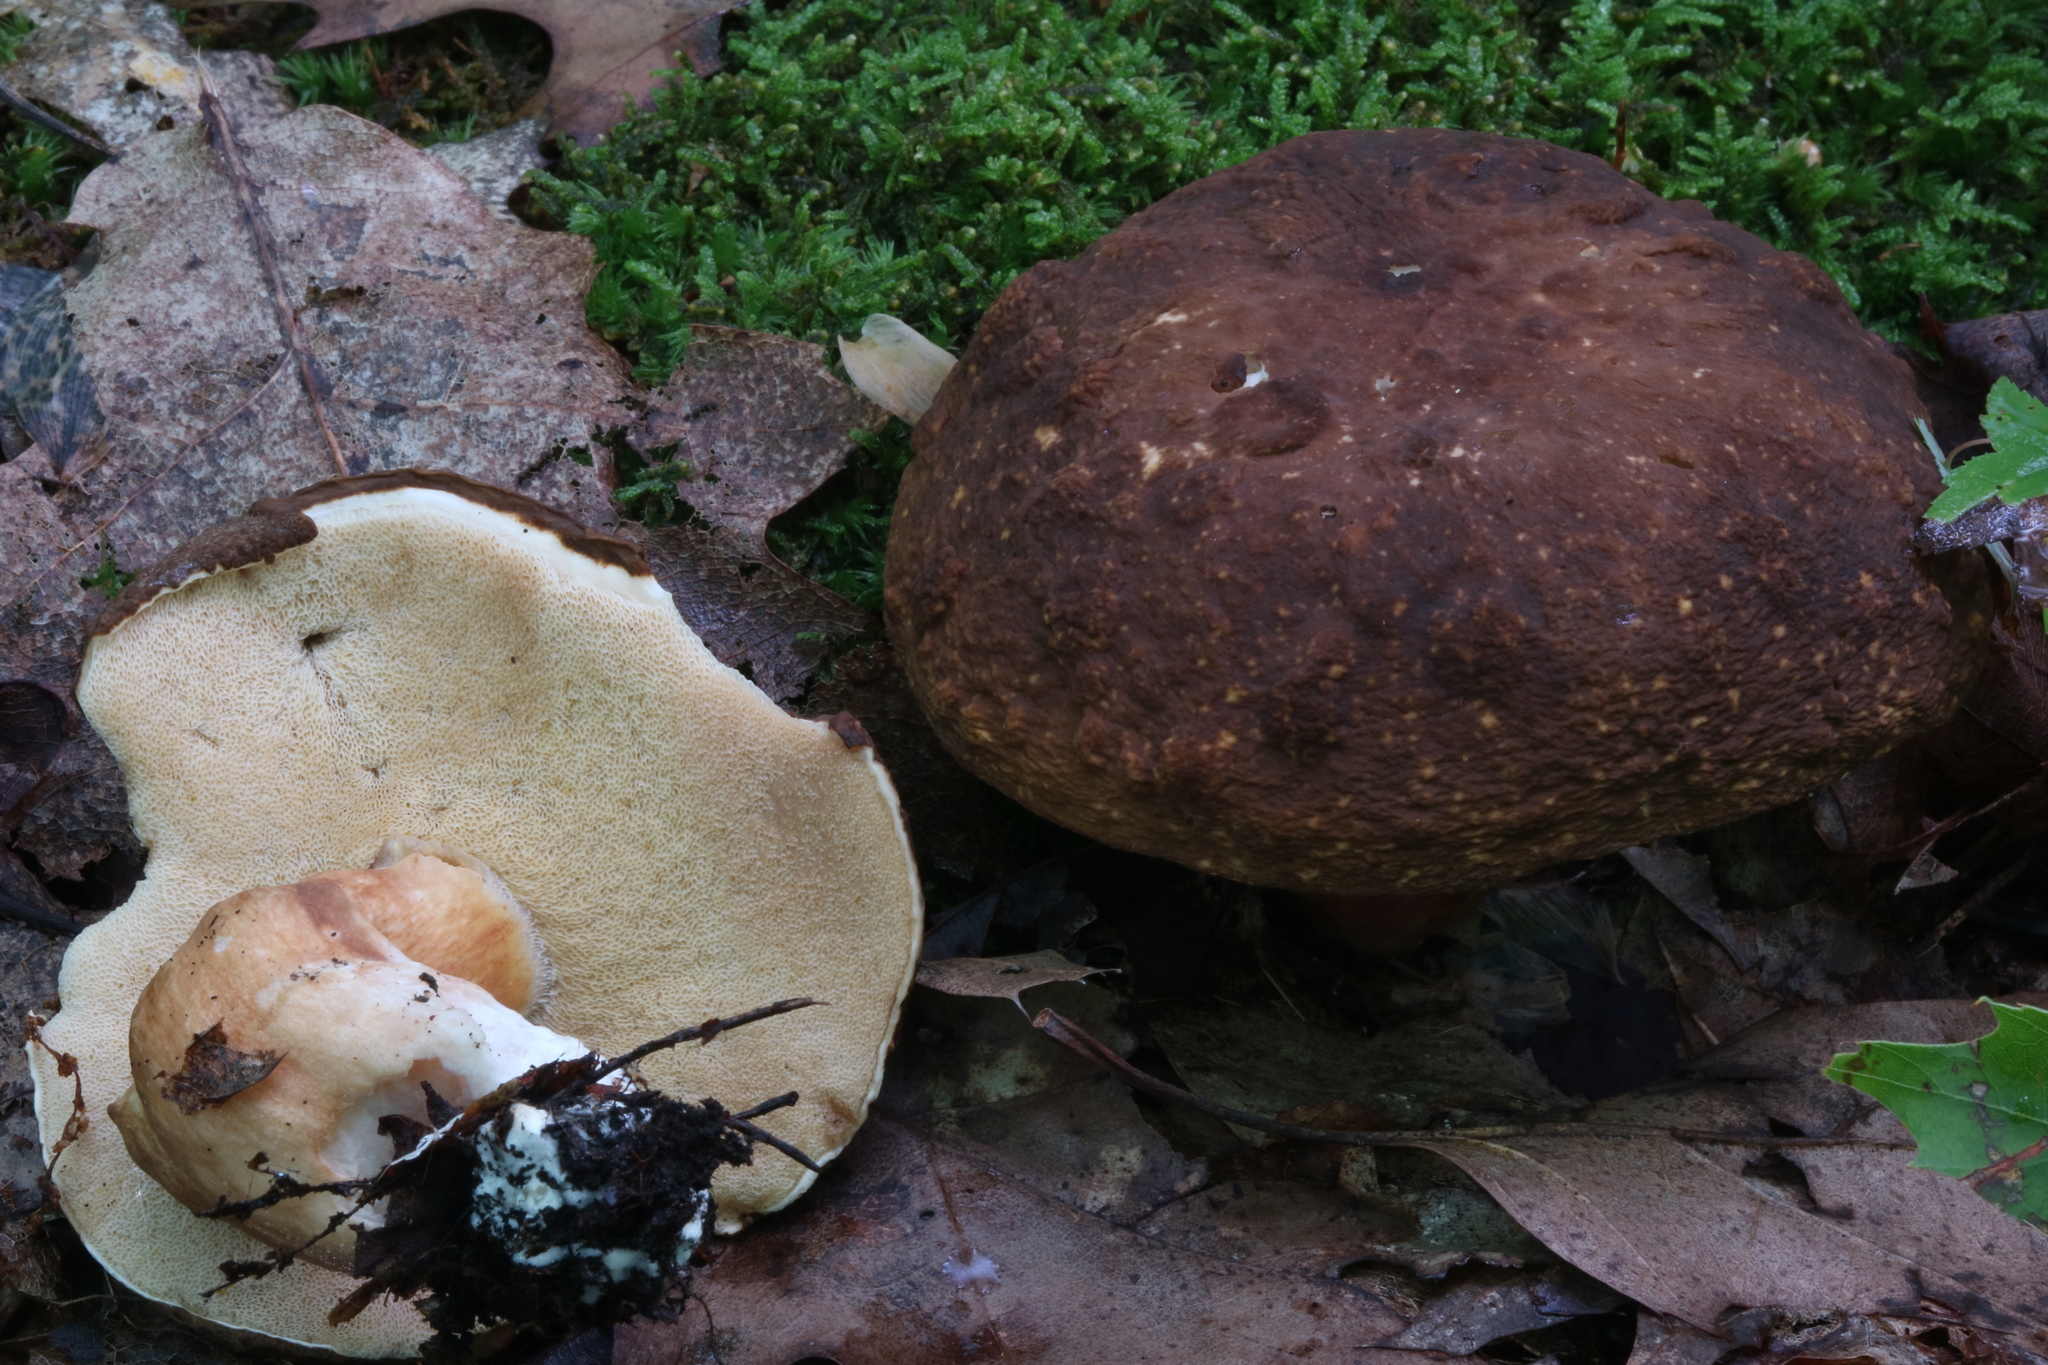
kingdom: Fungi
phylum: Basidiomycota
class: Agaricomycetes
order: Boletales
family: Boletaceae
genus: Xanthoconium
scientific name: Xanthoconium affine
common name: Spotted bolete
